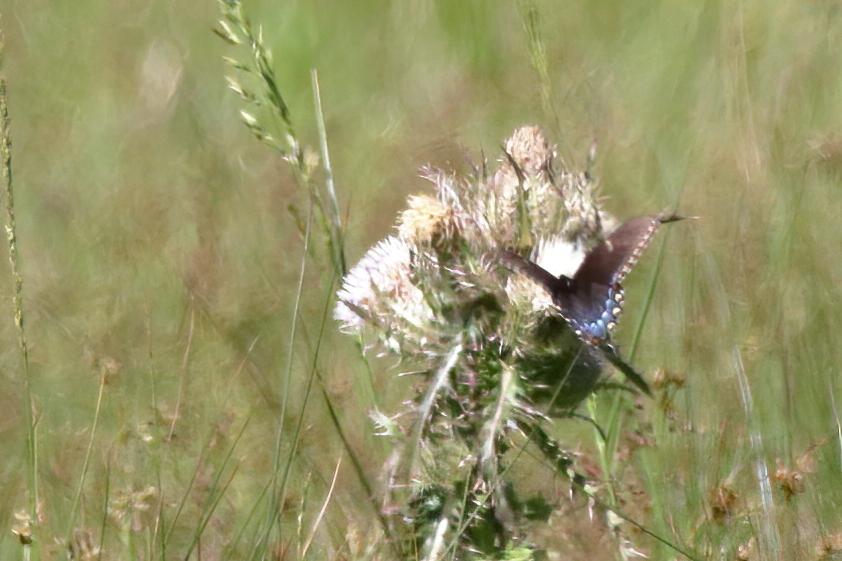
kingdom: Animalia
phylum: Arthropoda
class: Insecta
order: Lepidoptera
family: Papilionidae
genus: Papilio
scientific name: Papilio glaucus
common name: Tiger swallowtail
